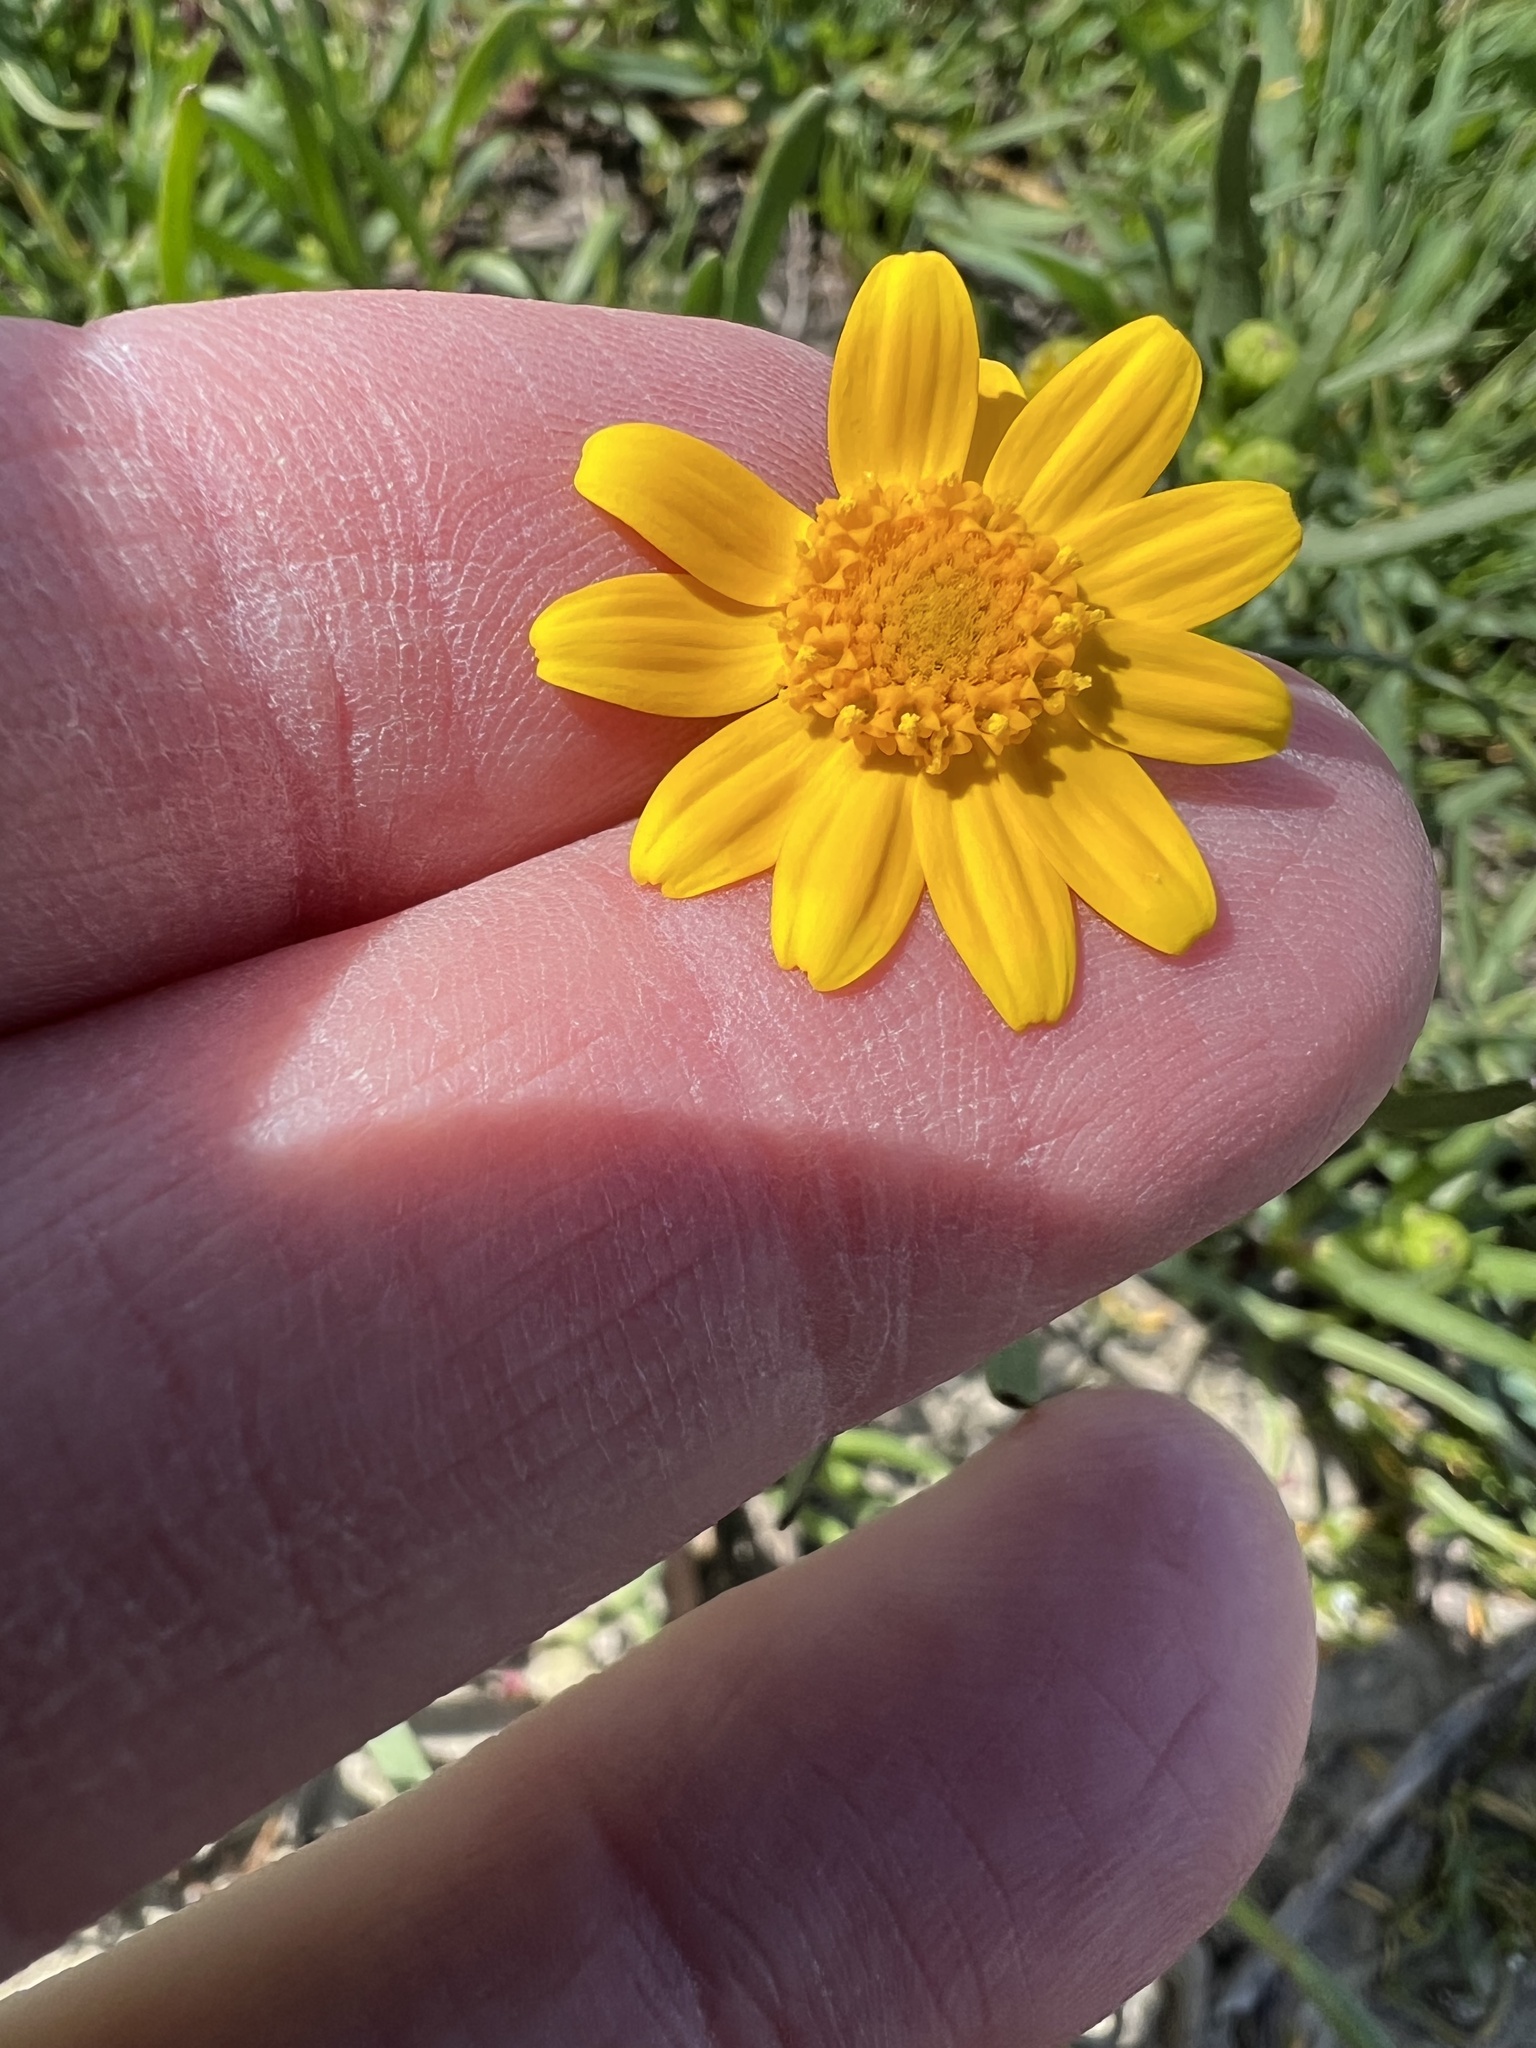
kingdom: Plantae
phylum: Tracheophyta
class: Magnoliopsida
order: Asterales
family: Asteraceae
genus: Lasthenia
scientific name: Lasthenia glabrata
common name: Yellow-ray lasthenia
